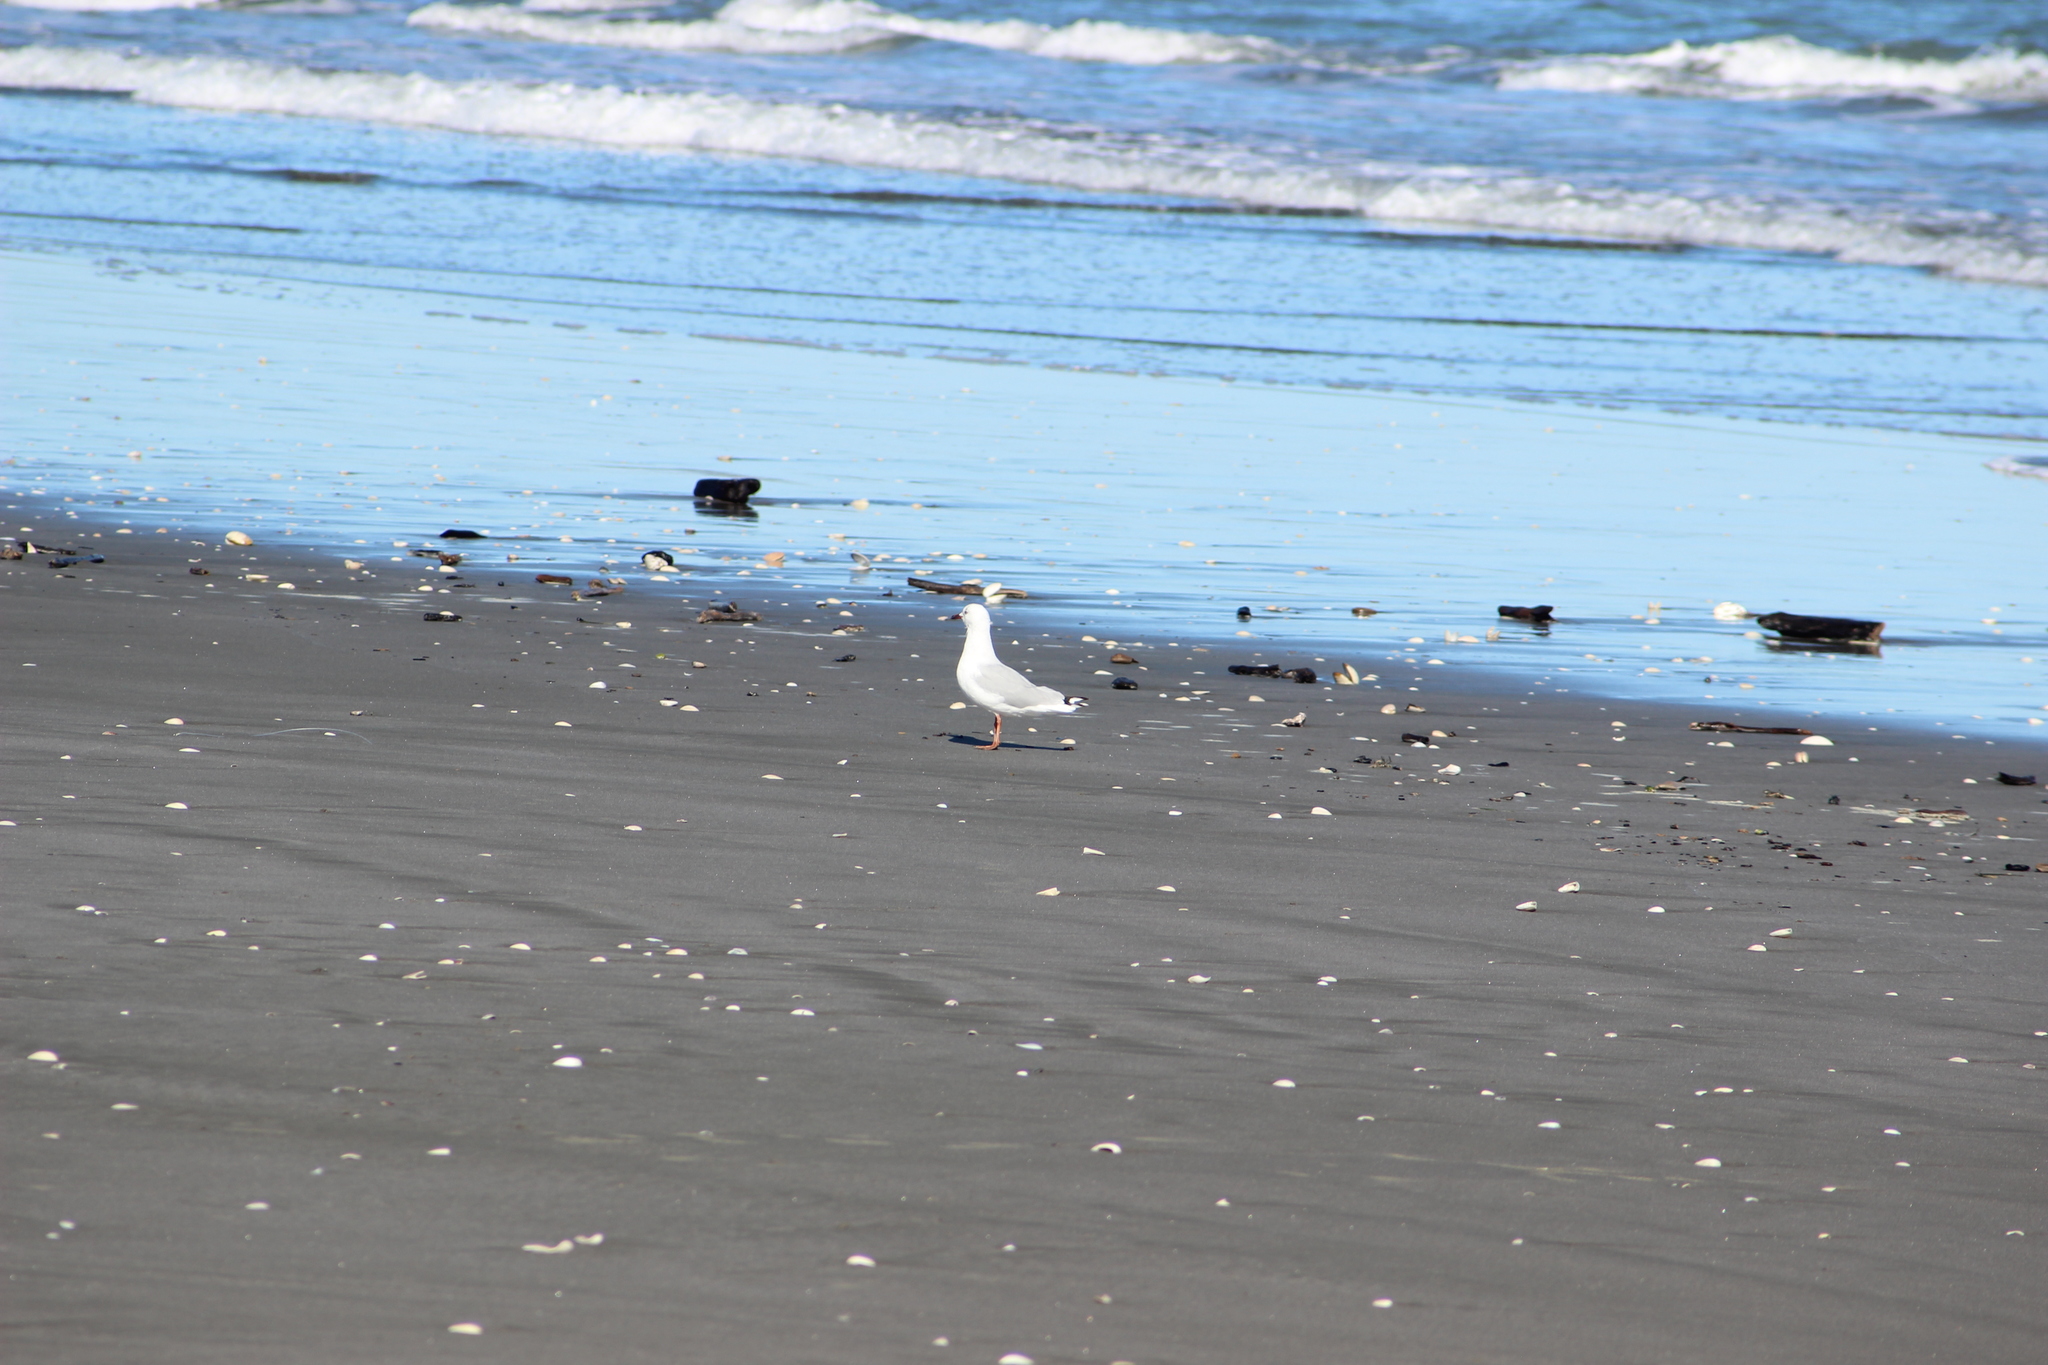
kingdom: Animalia
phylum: Chordata
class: Aves
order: Charadriiformes
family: Laridae
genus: Chroicocephalus
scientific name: Chroicocephalus novaehollandiae
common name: Silver gull
